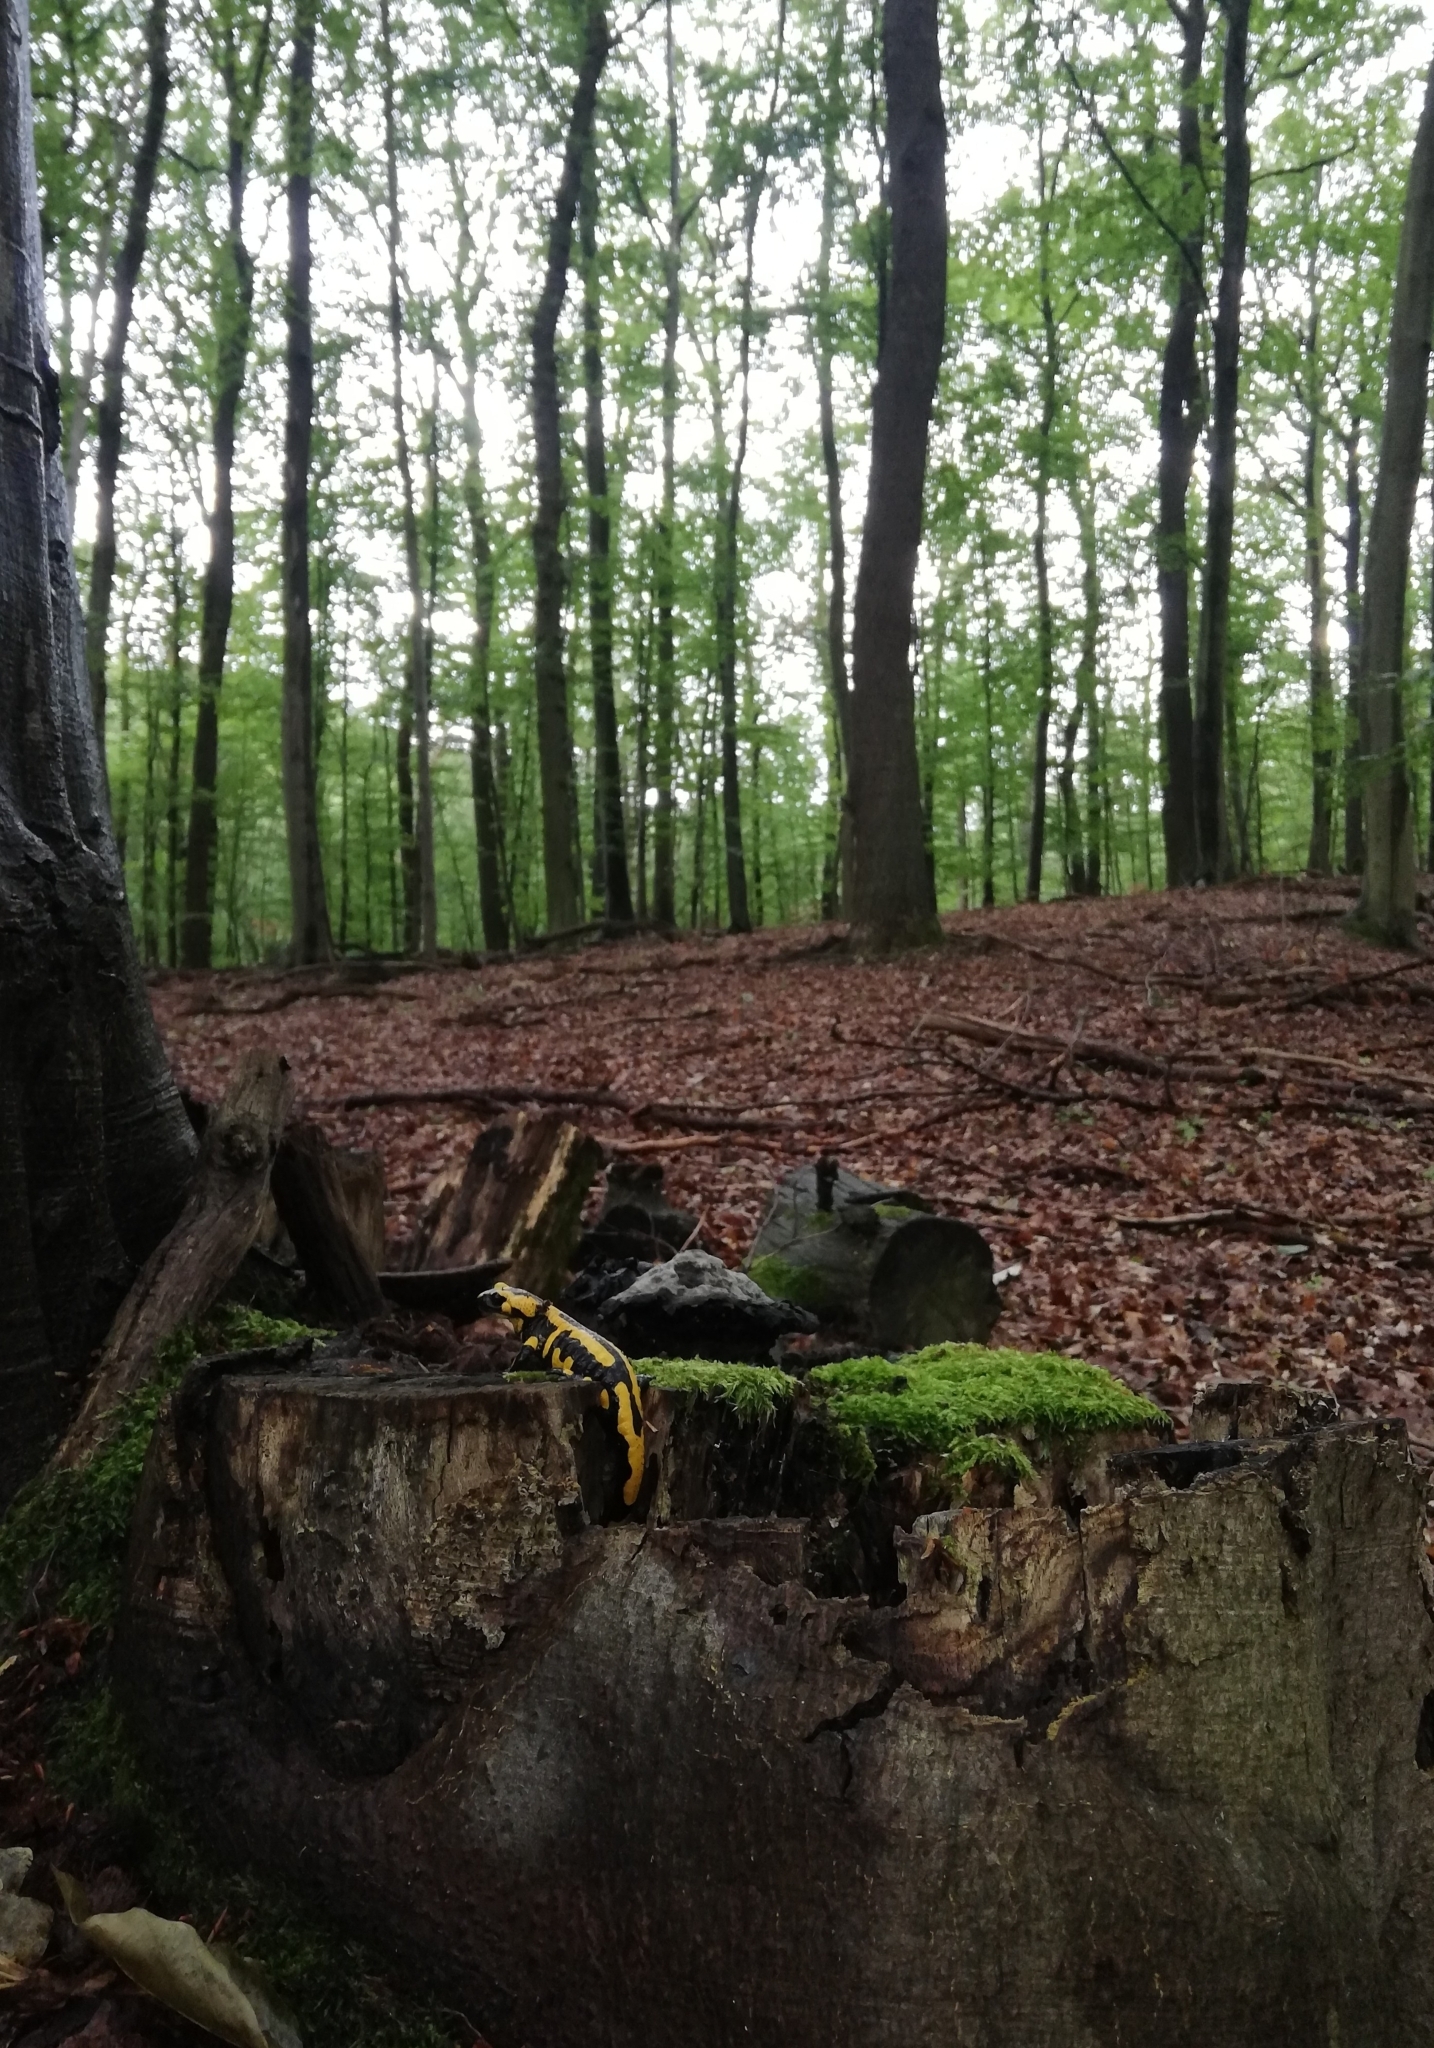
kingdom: Animalia
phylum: Chordata
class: Amphibia
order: Caudata
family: Salamandridae
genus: Salamandra
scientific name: Salamandra salamandra
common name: Fire salamander
